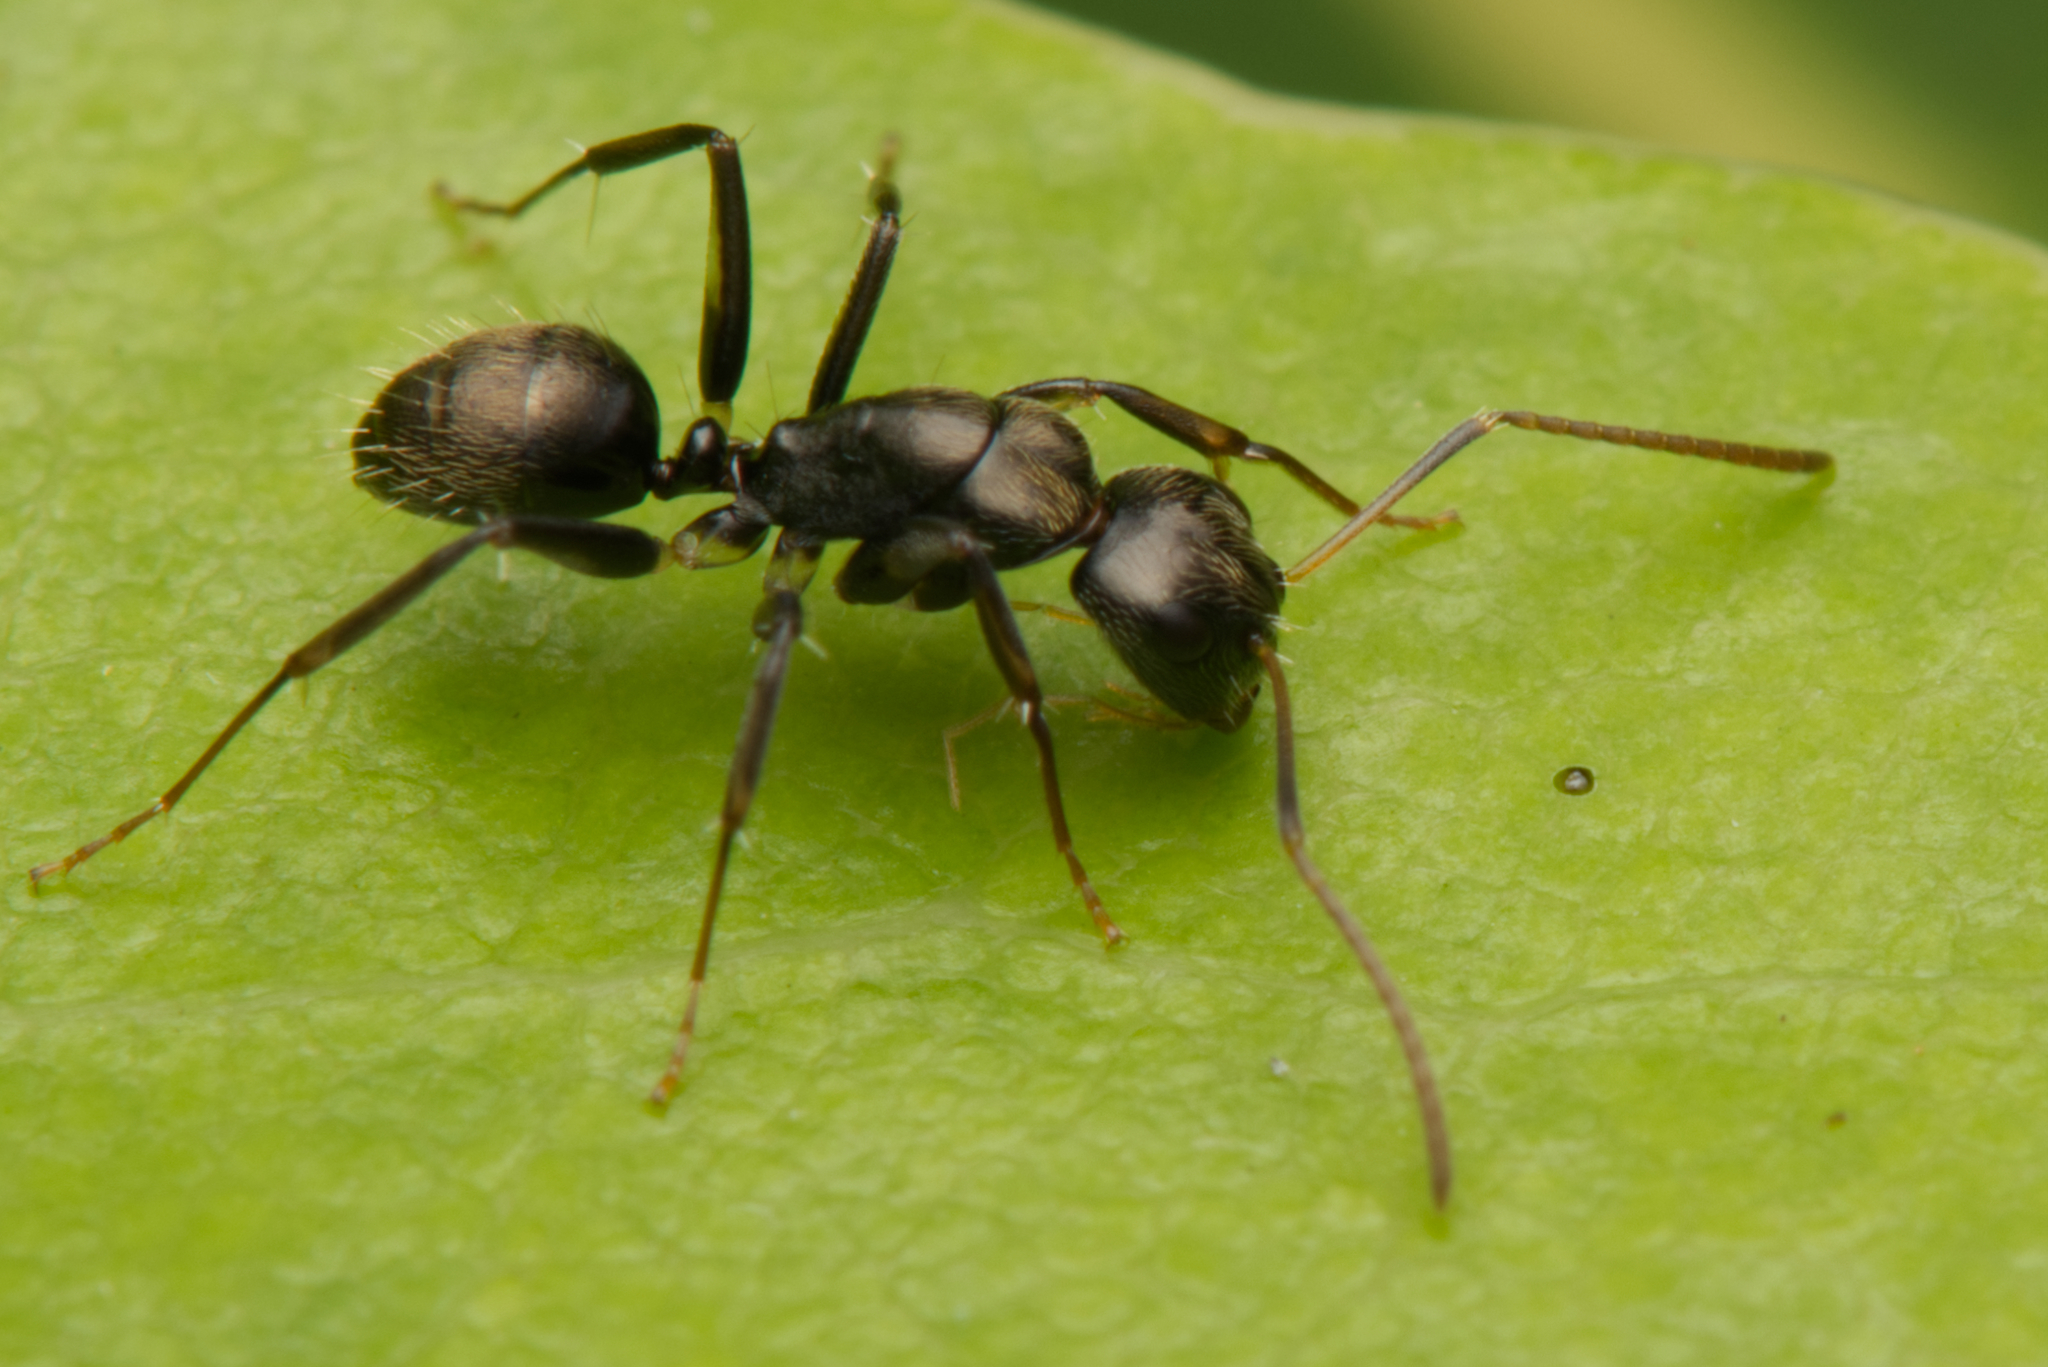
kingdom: Animalia
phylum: Arthropoda
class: Insecta
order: Hymenoptera
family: Formicidae
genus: Camponotus
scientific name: Camponotus froggatti
